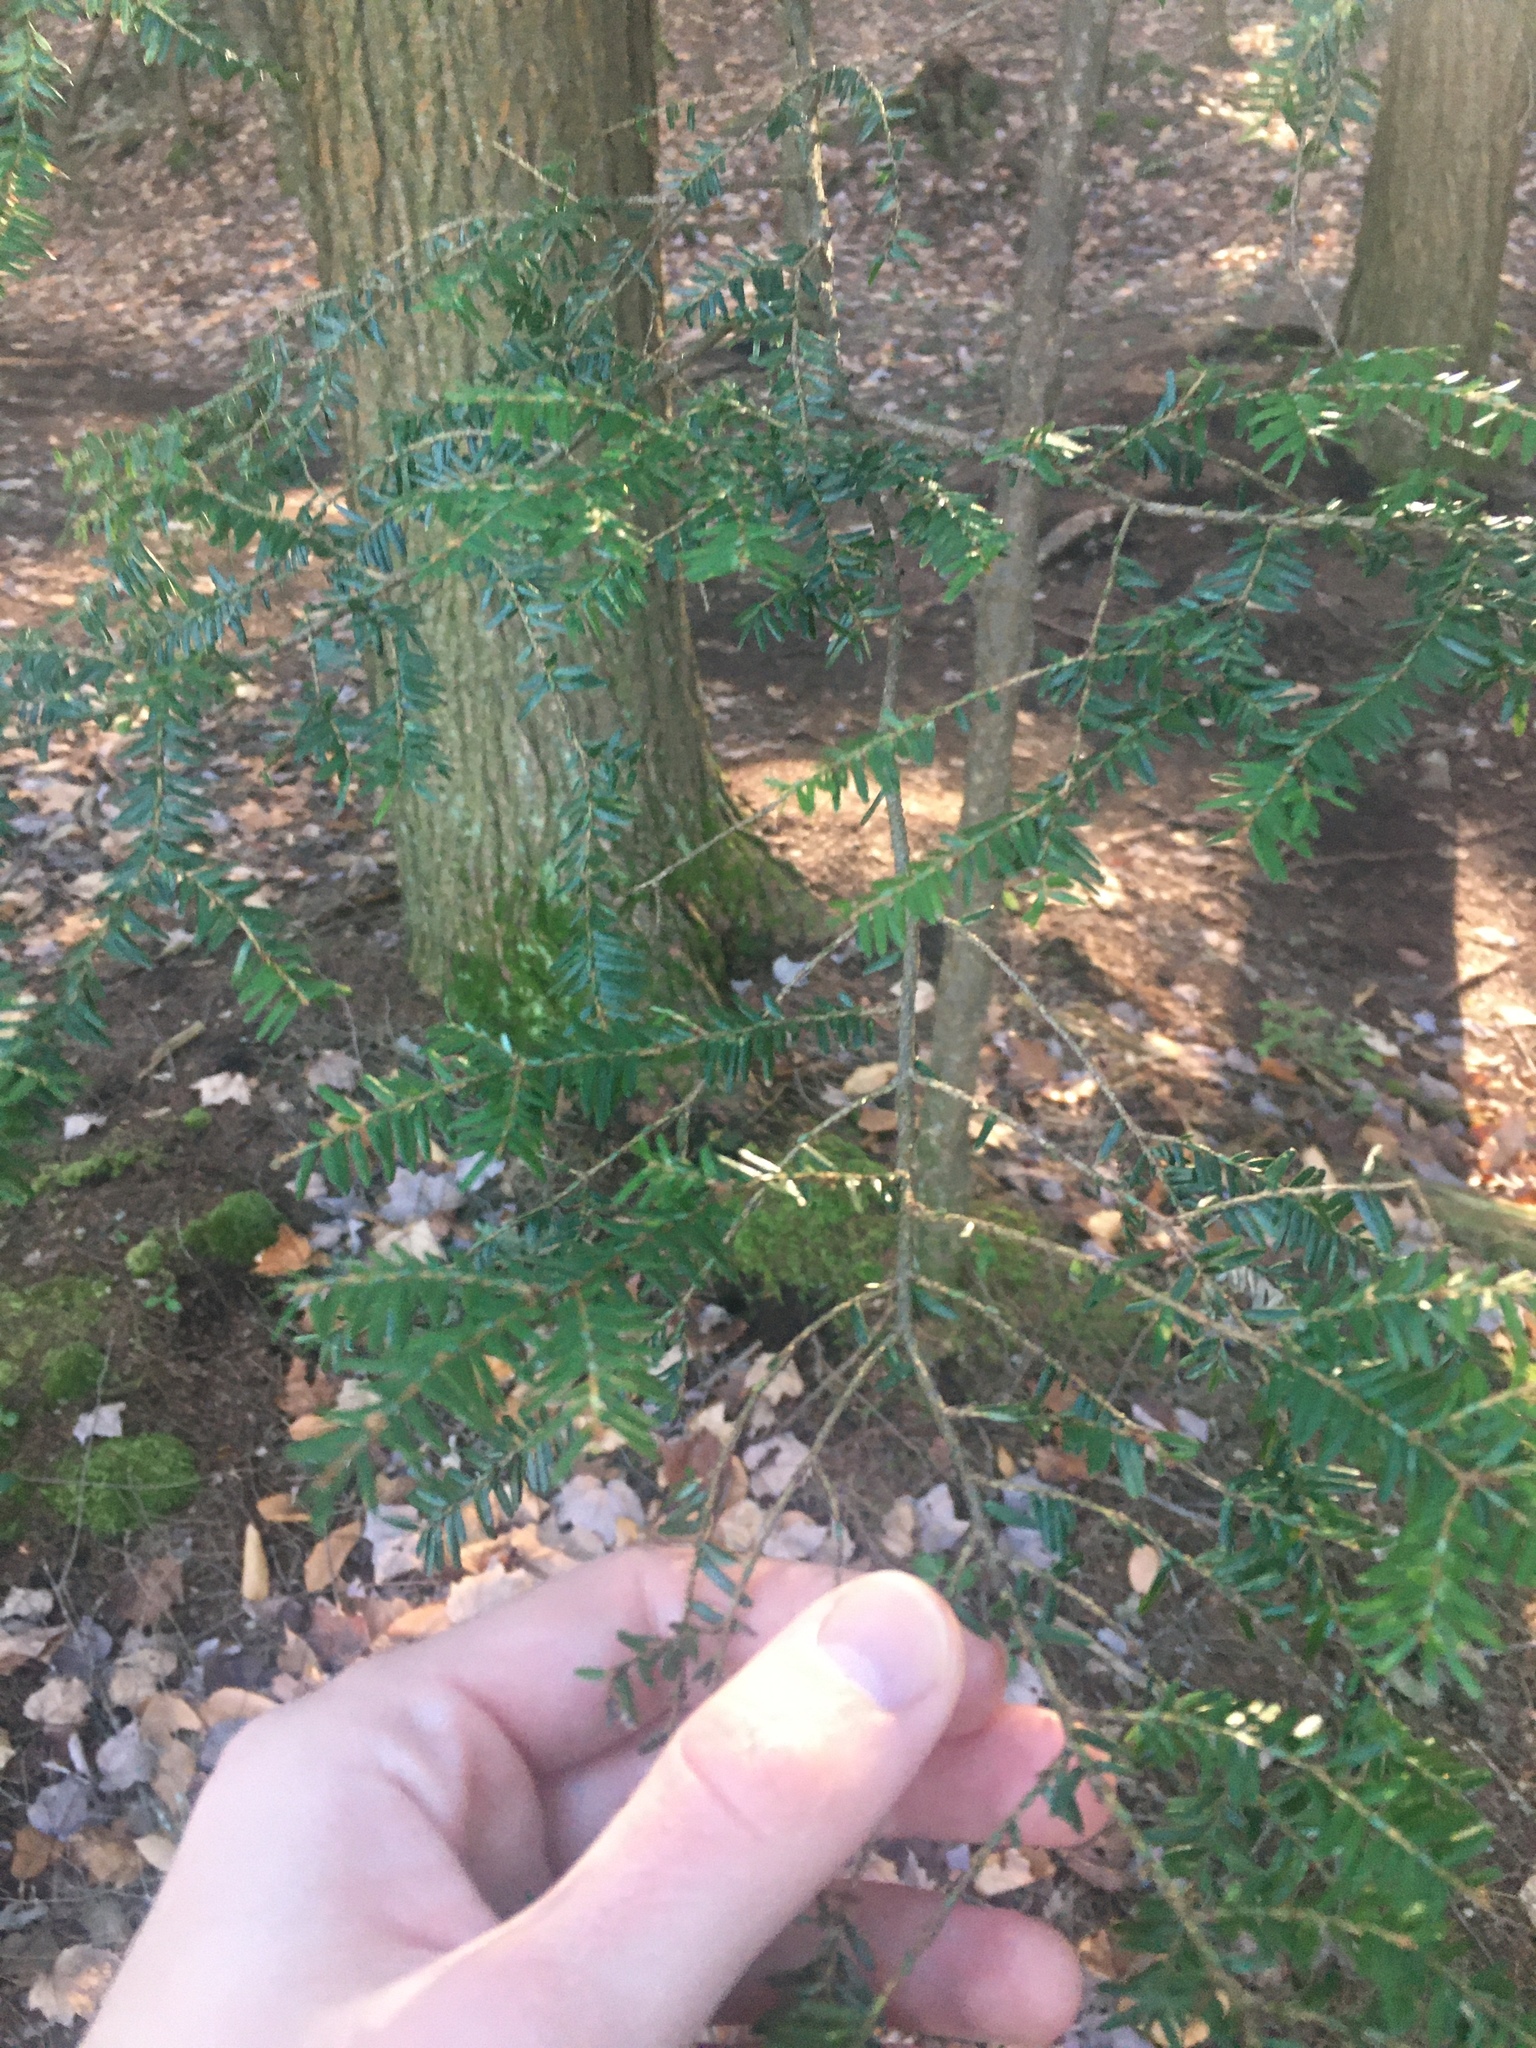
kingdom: Plantae
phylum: Tracheophyta
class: Pinopsida
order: Pinales
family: Pinaceae
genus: Tsuga
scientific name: Tsuga canadensis
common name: Eastern hemlock
